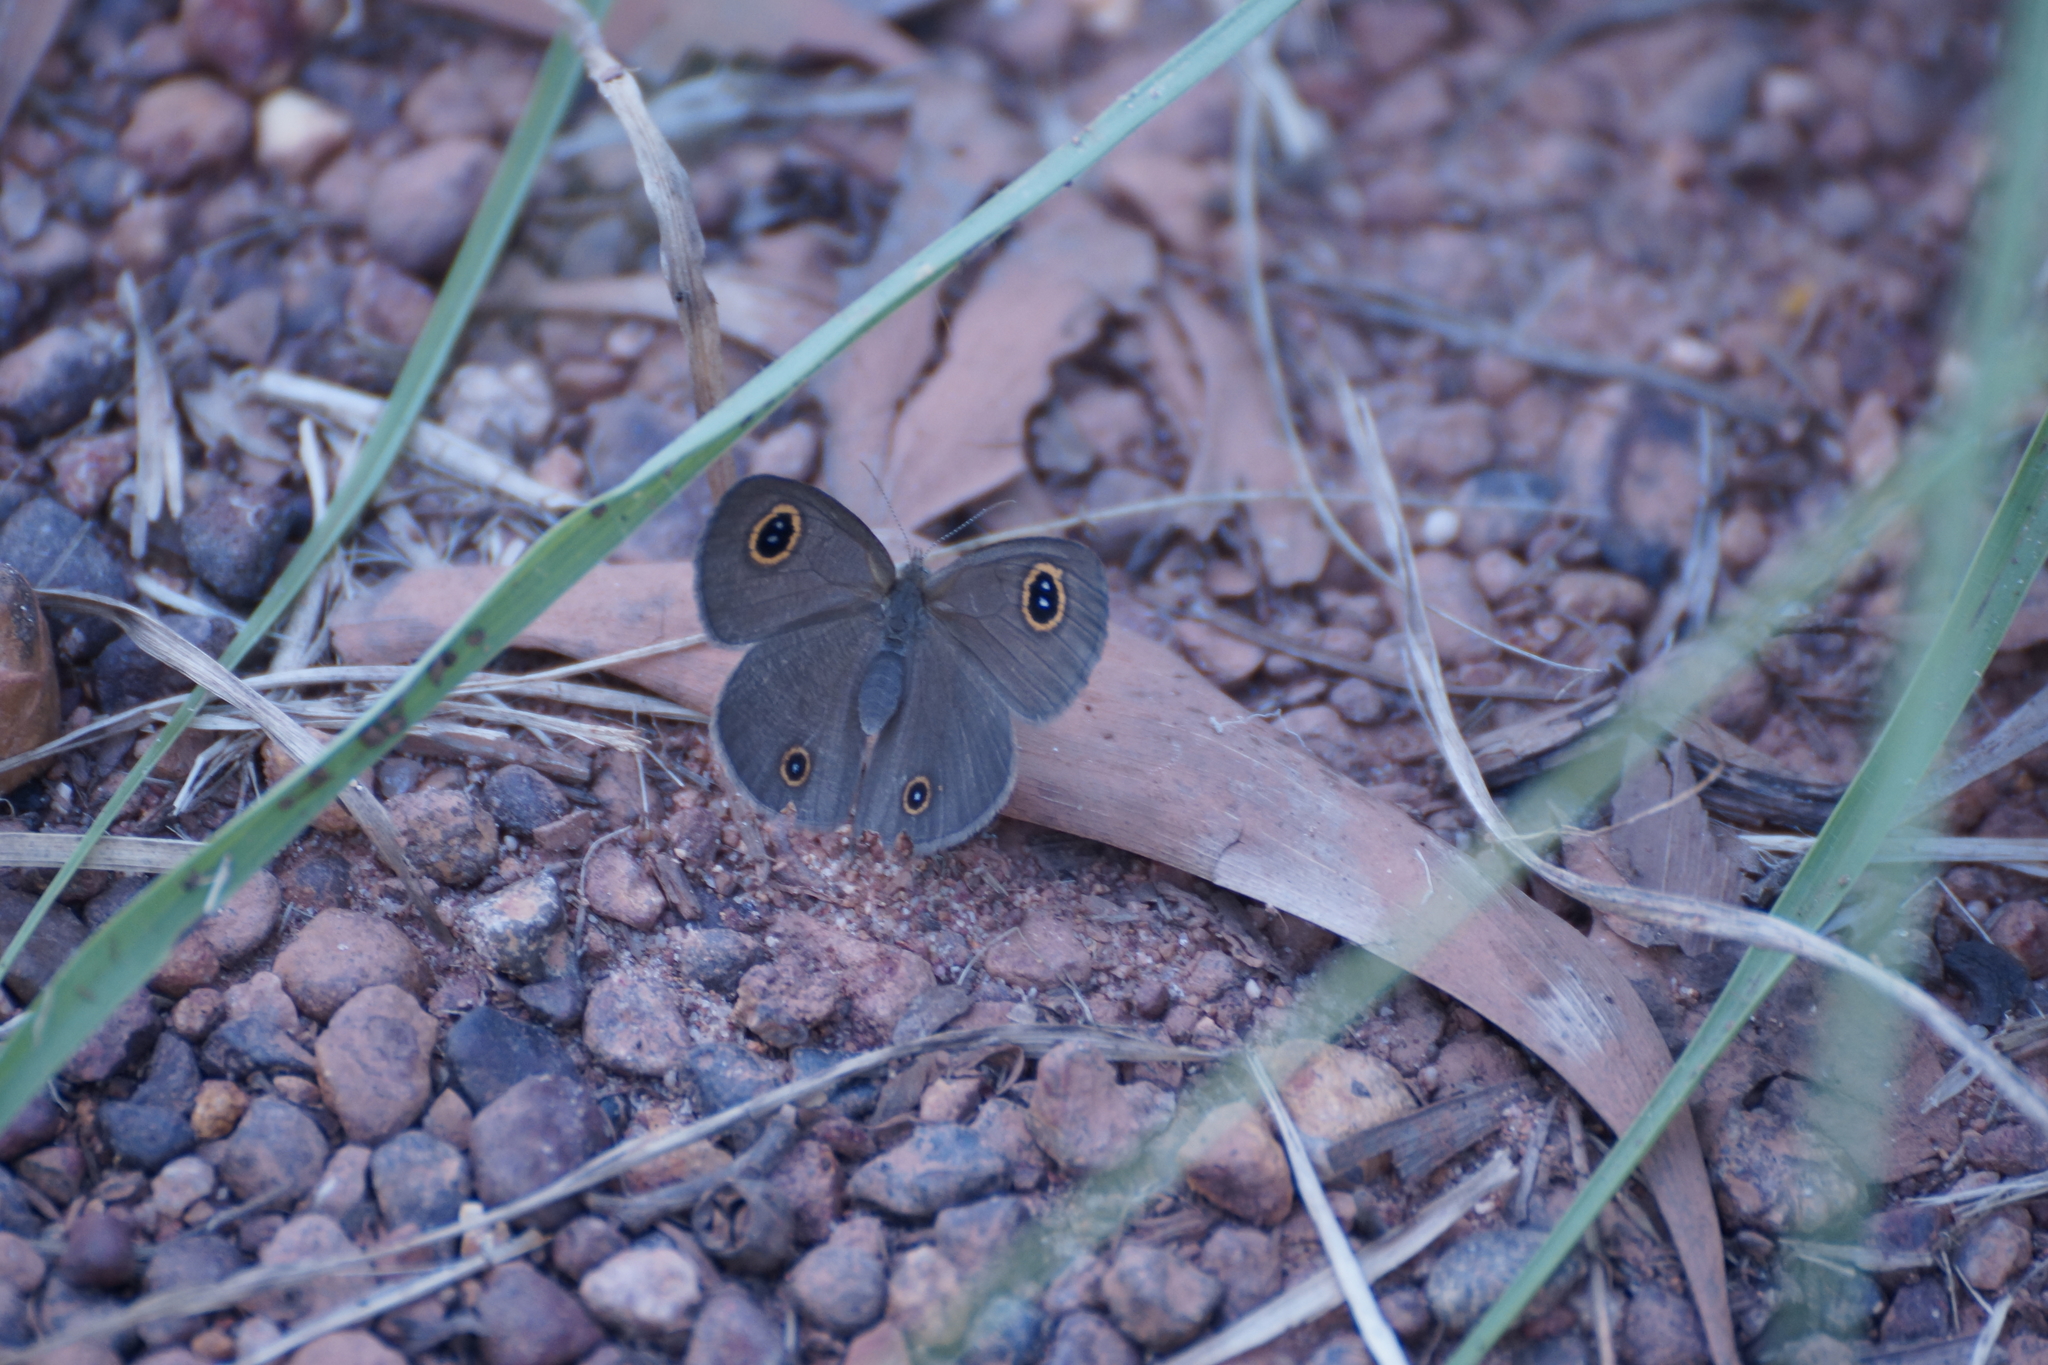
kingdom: Animalia
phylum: Arthropoda
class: Insecta
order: Lepidoptera
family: Nymphalidae
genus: Ypthima
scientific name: Ypthima arctous
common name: Dusky knight
